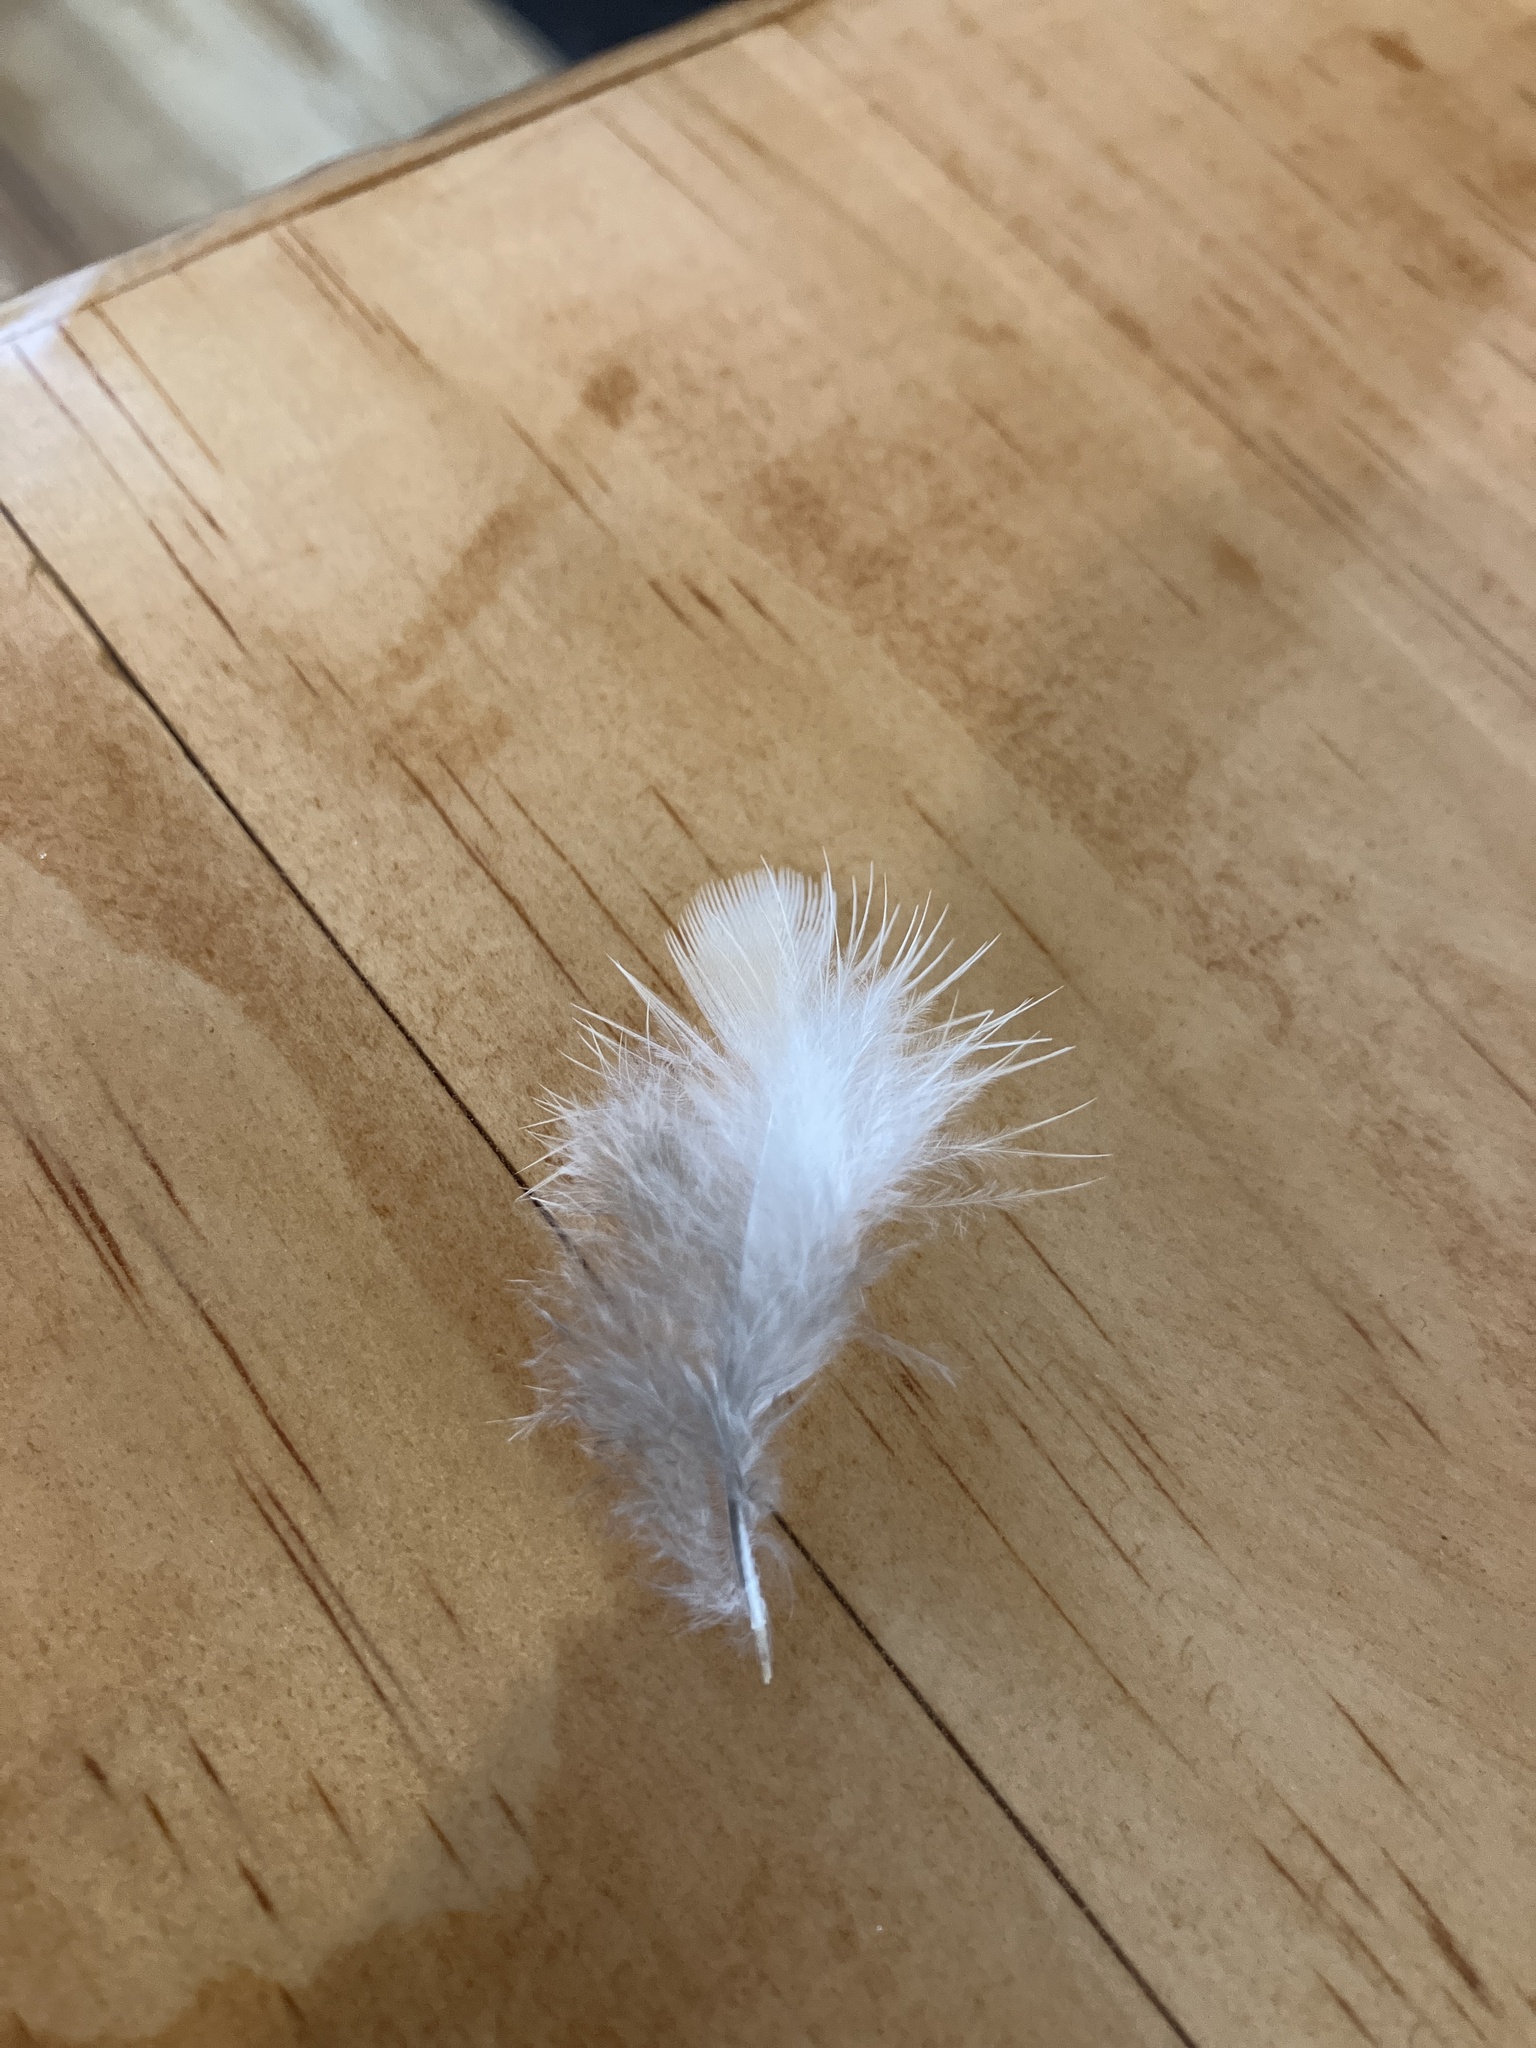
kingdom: Animalia
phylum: Chordata
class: Aves
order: Columbiformes
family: Columbidae
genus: Zenaida
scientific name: Zenaida macroura
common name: Mourning dove
